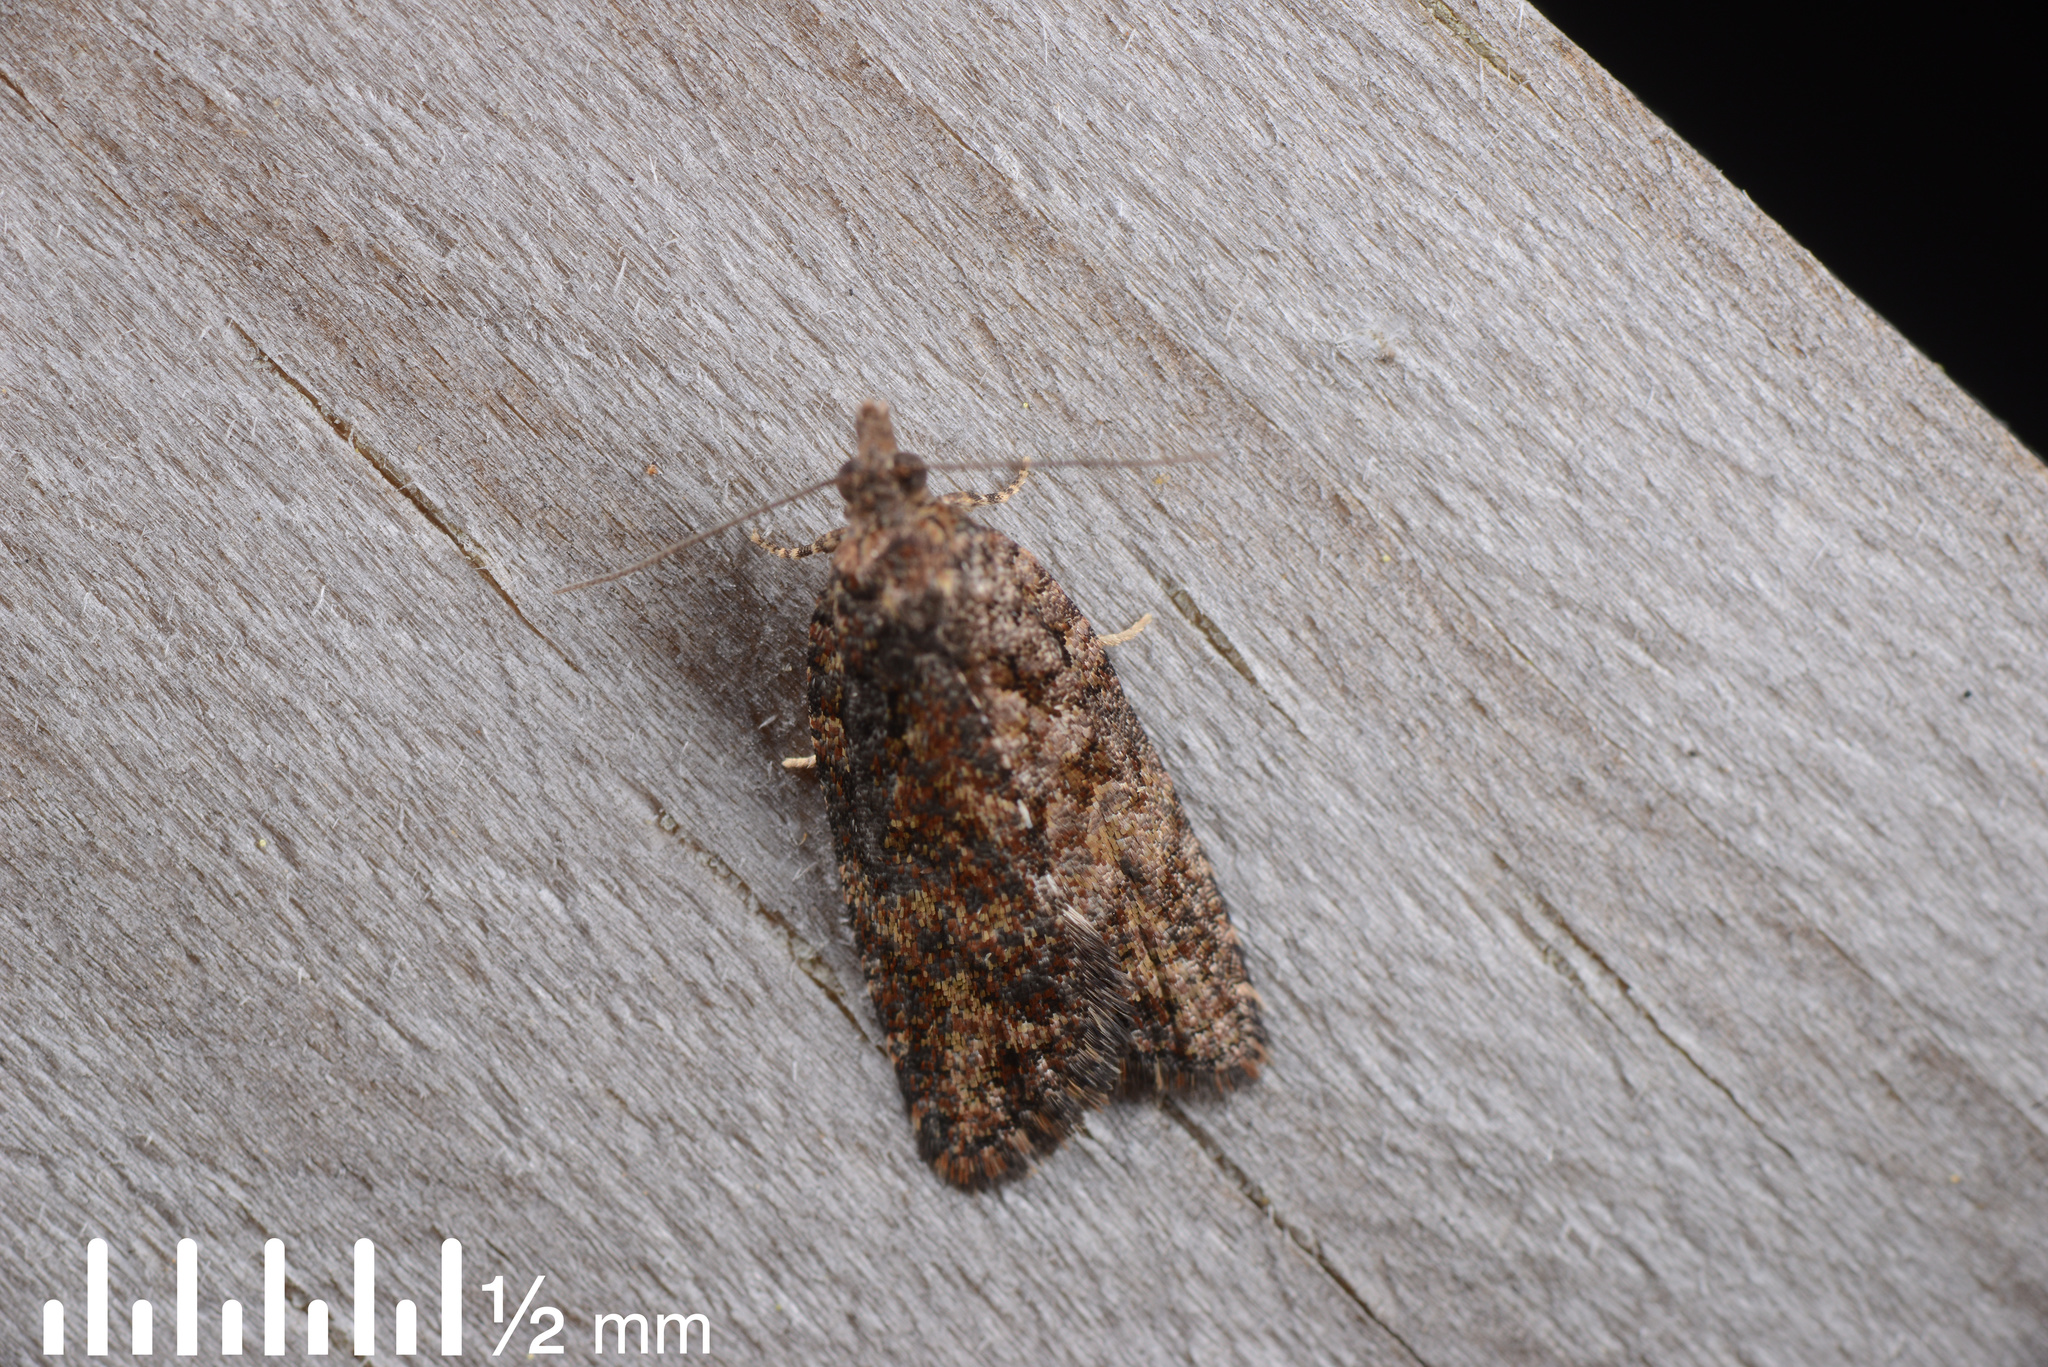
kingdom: Animalia
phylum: Arthropoda
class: Insecta
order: Lepidoptera
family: Tortricidae
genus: Capua
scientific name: Capua intractana
